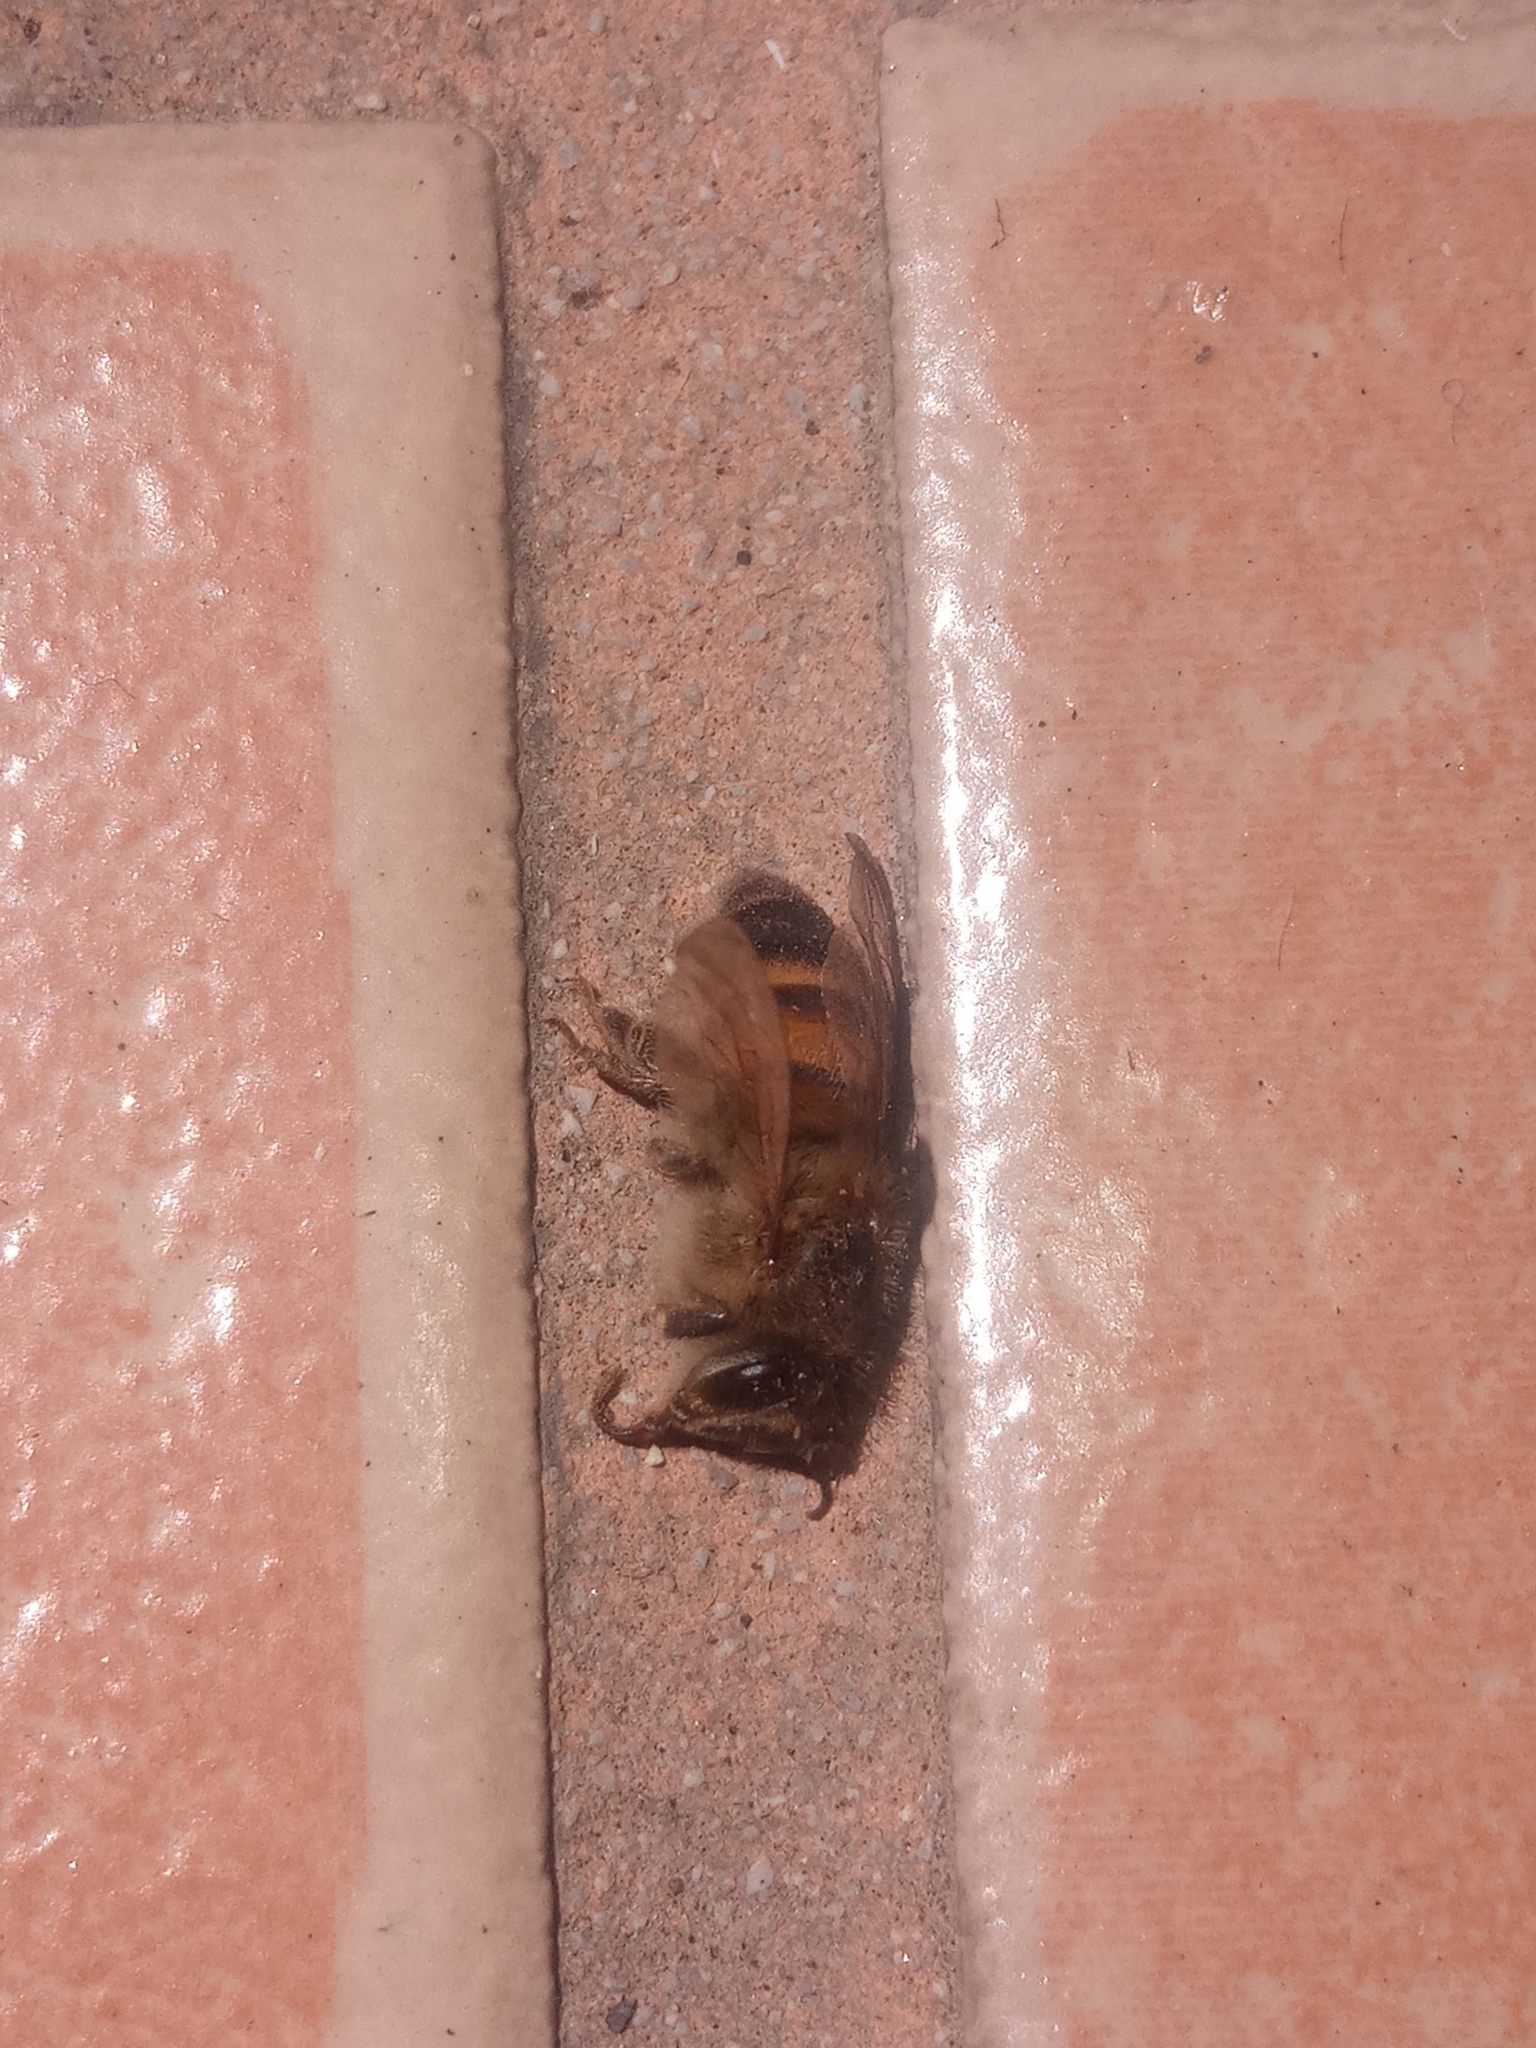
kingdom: Animalia
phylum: Arthropoda
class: Insecta
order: Hymenoptera
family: Apidae
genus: Apis
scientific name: Apis mellifera
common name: Honey bee
